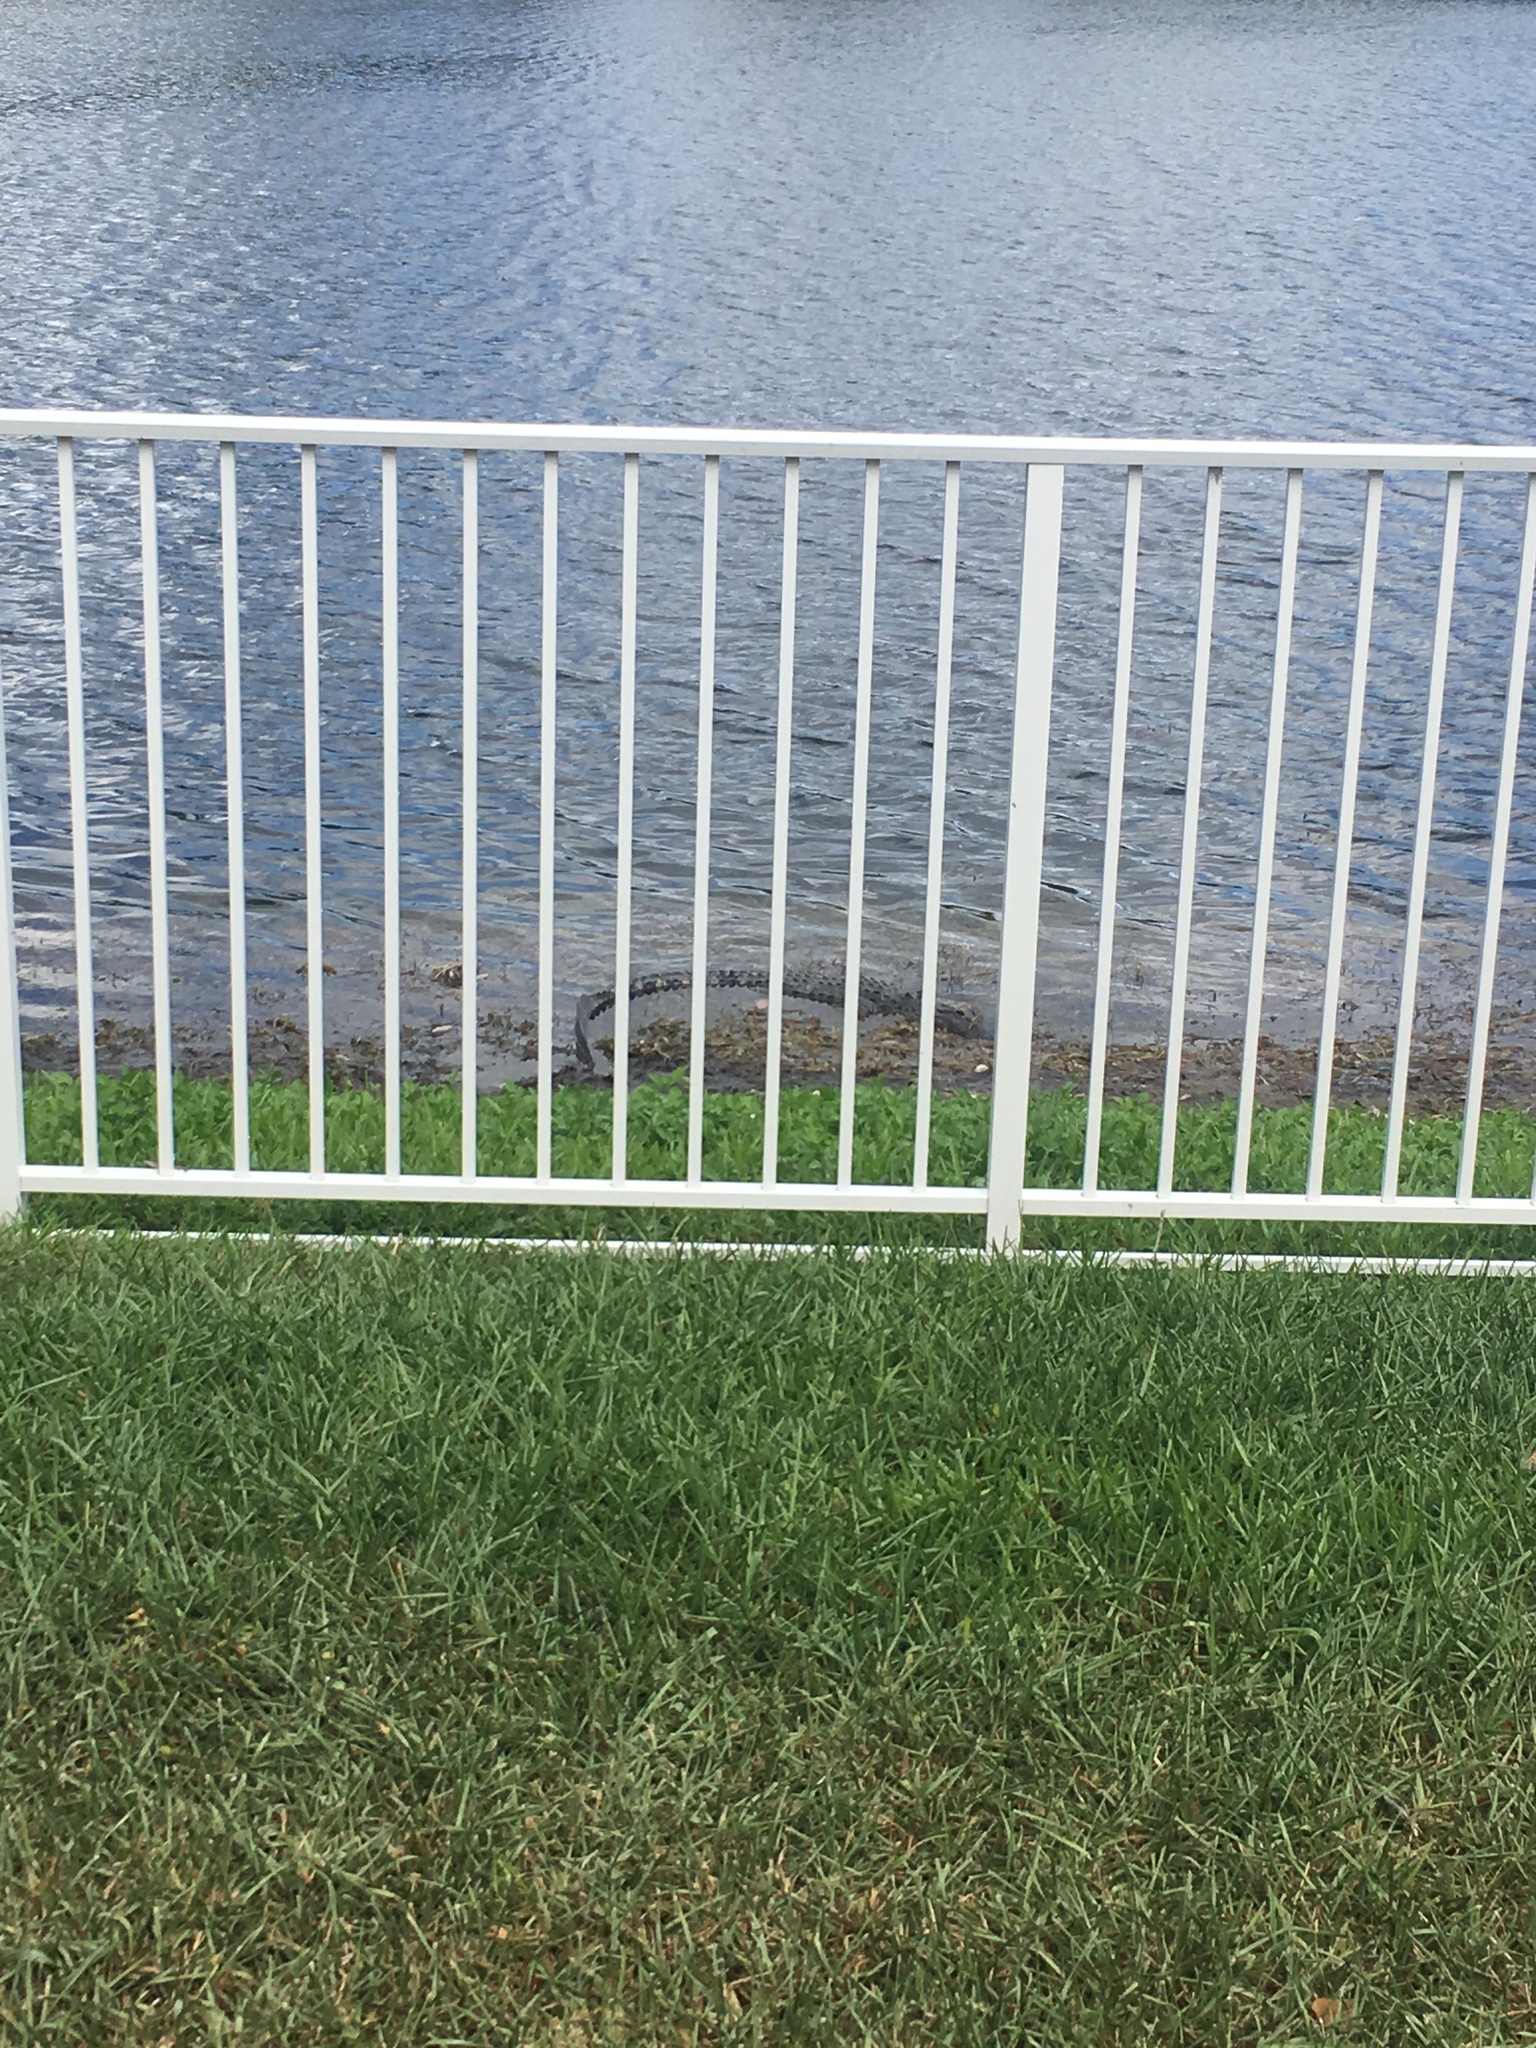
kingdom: Animalia
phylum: Chordata
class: Crocodylia
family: Alligatoridae
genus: Alligator
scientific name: Alligator mississippiensis
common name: American alligator
